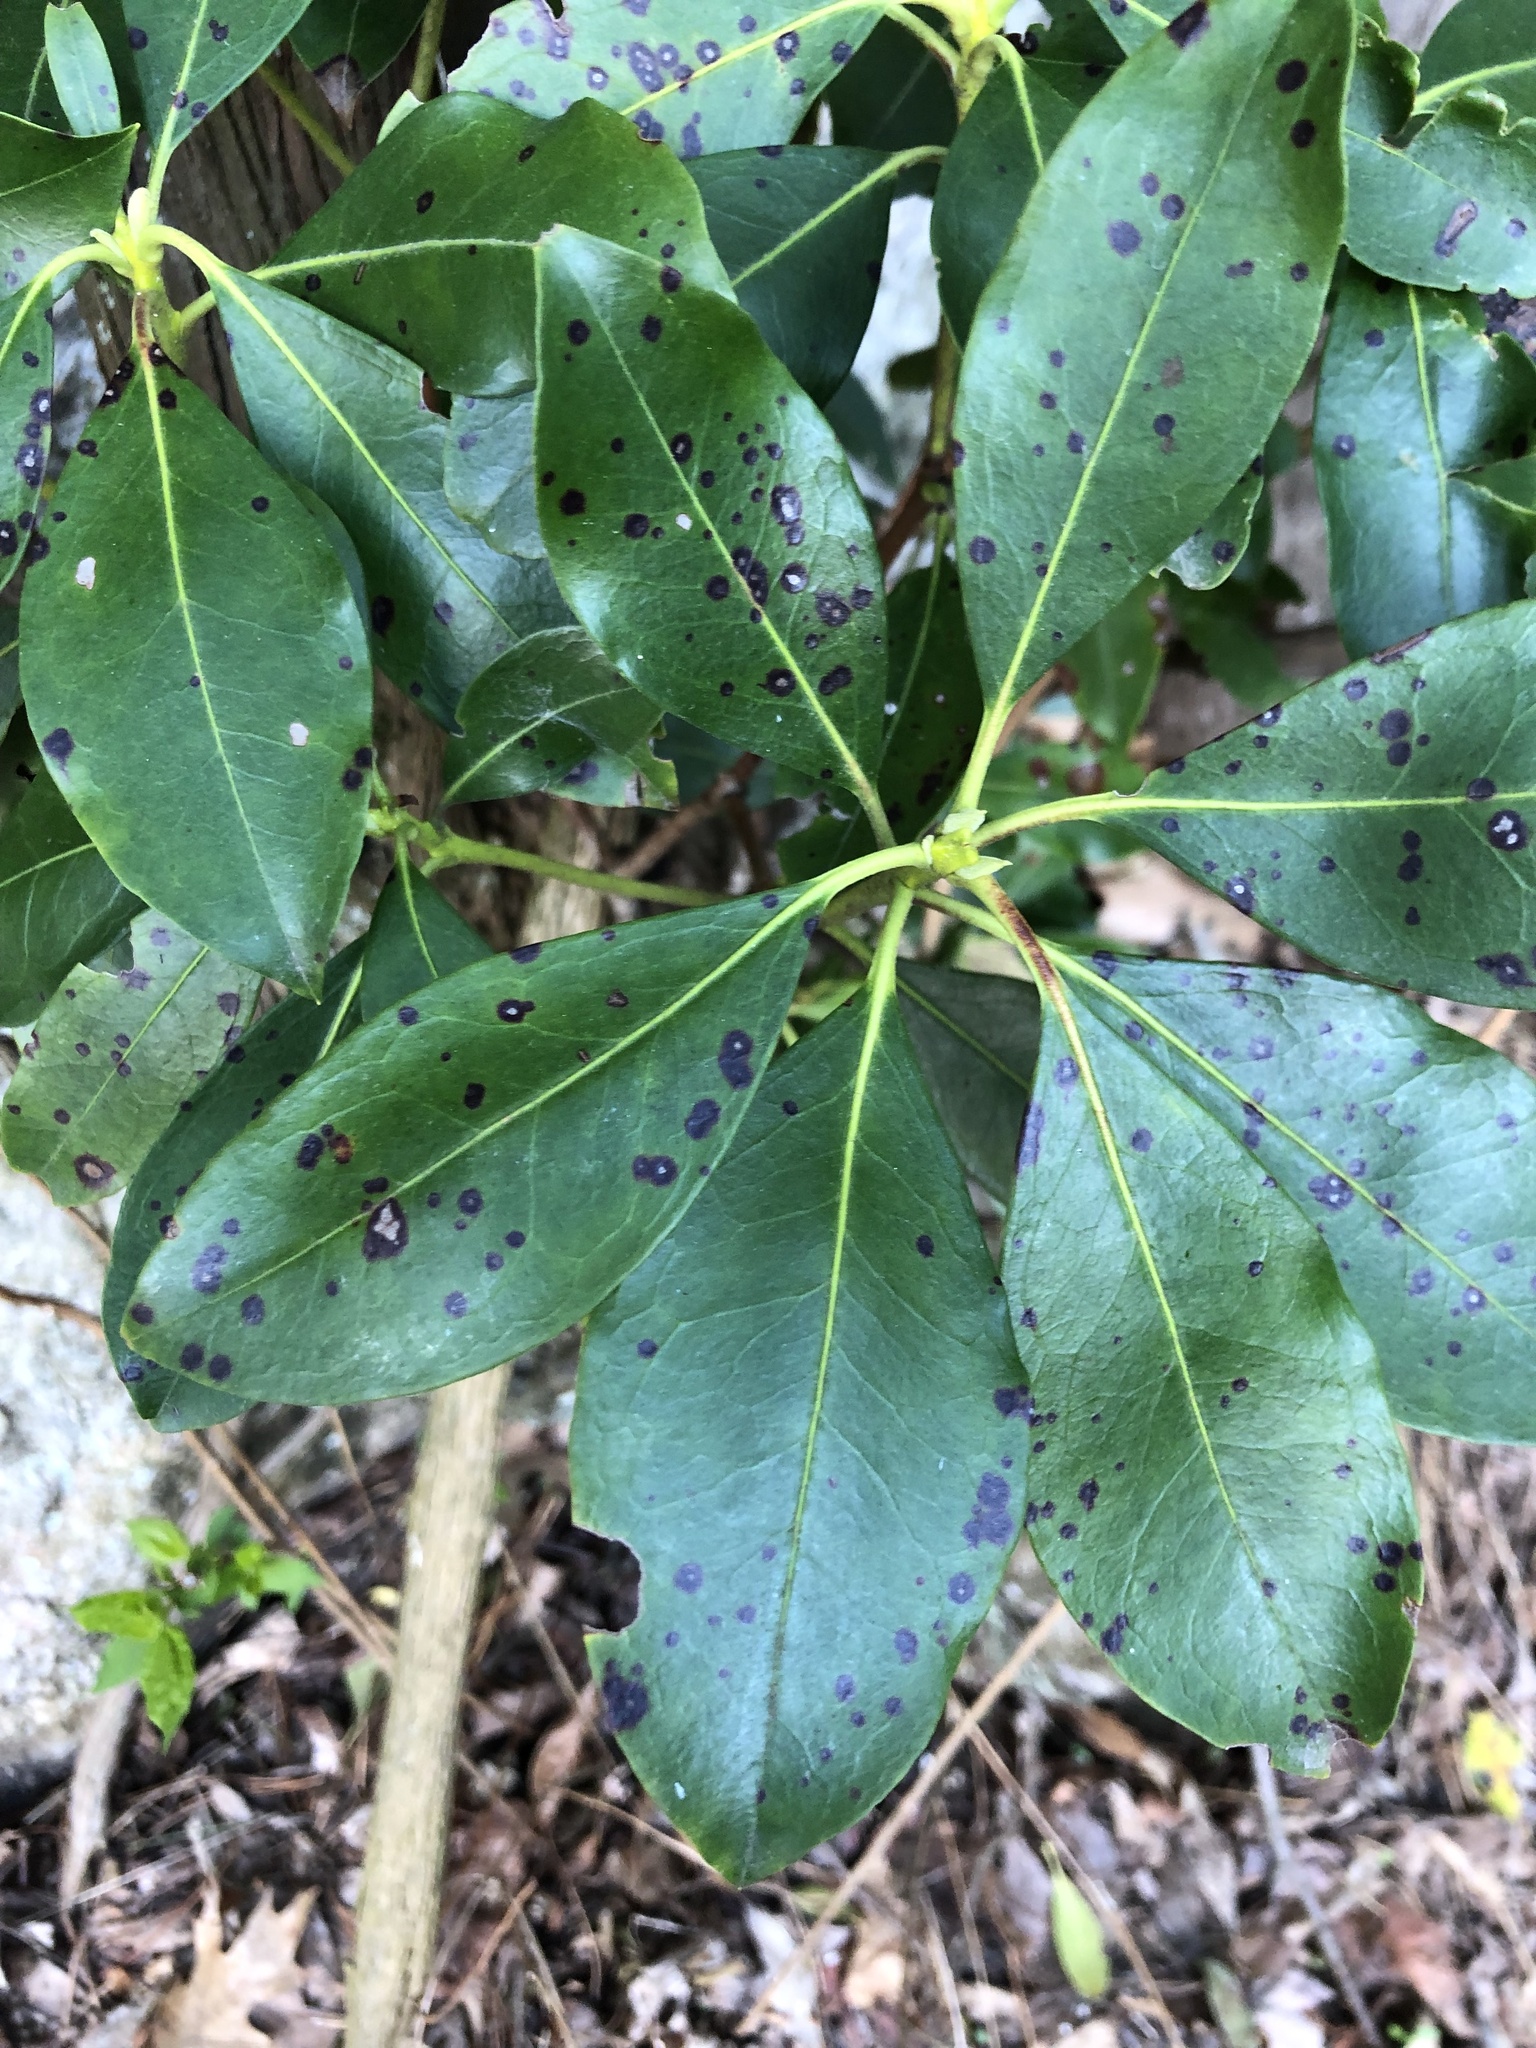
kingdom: Plantae
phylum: Tracheophyta
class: Magnoliopsida
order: Ericales
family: Ericaceae
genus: Kalmia
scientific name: Kalmia latifolia
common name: Mountain-laurel
